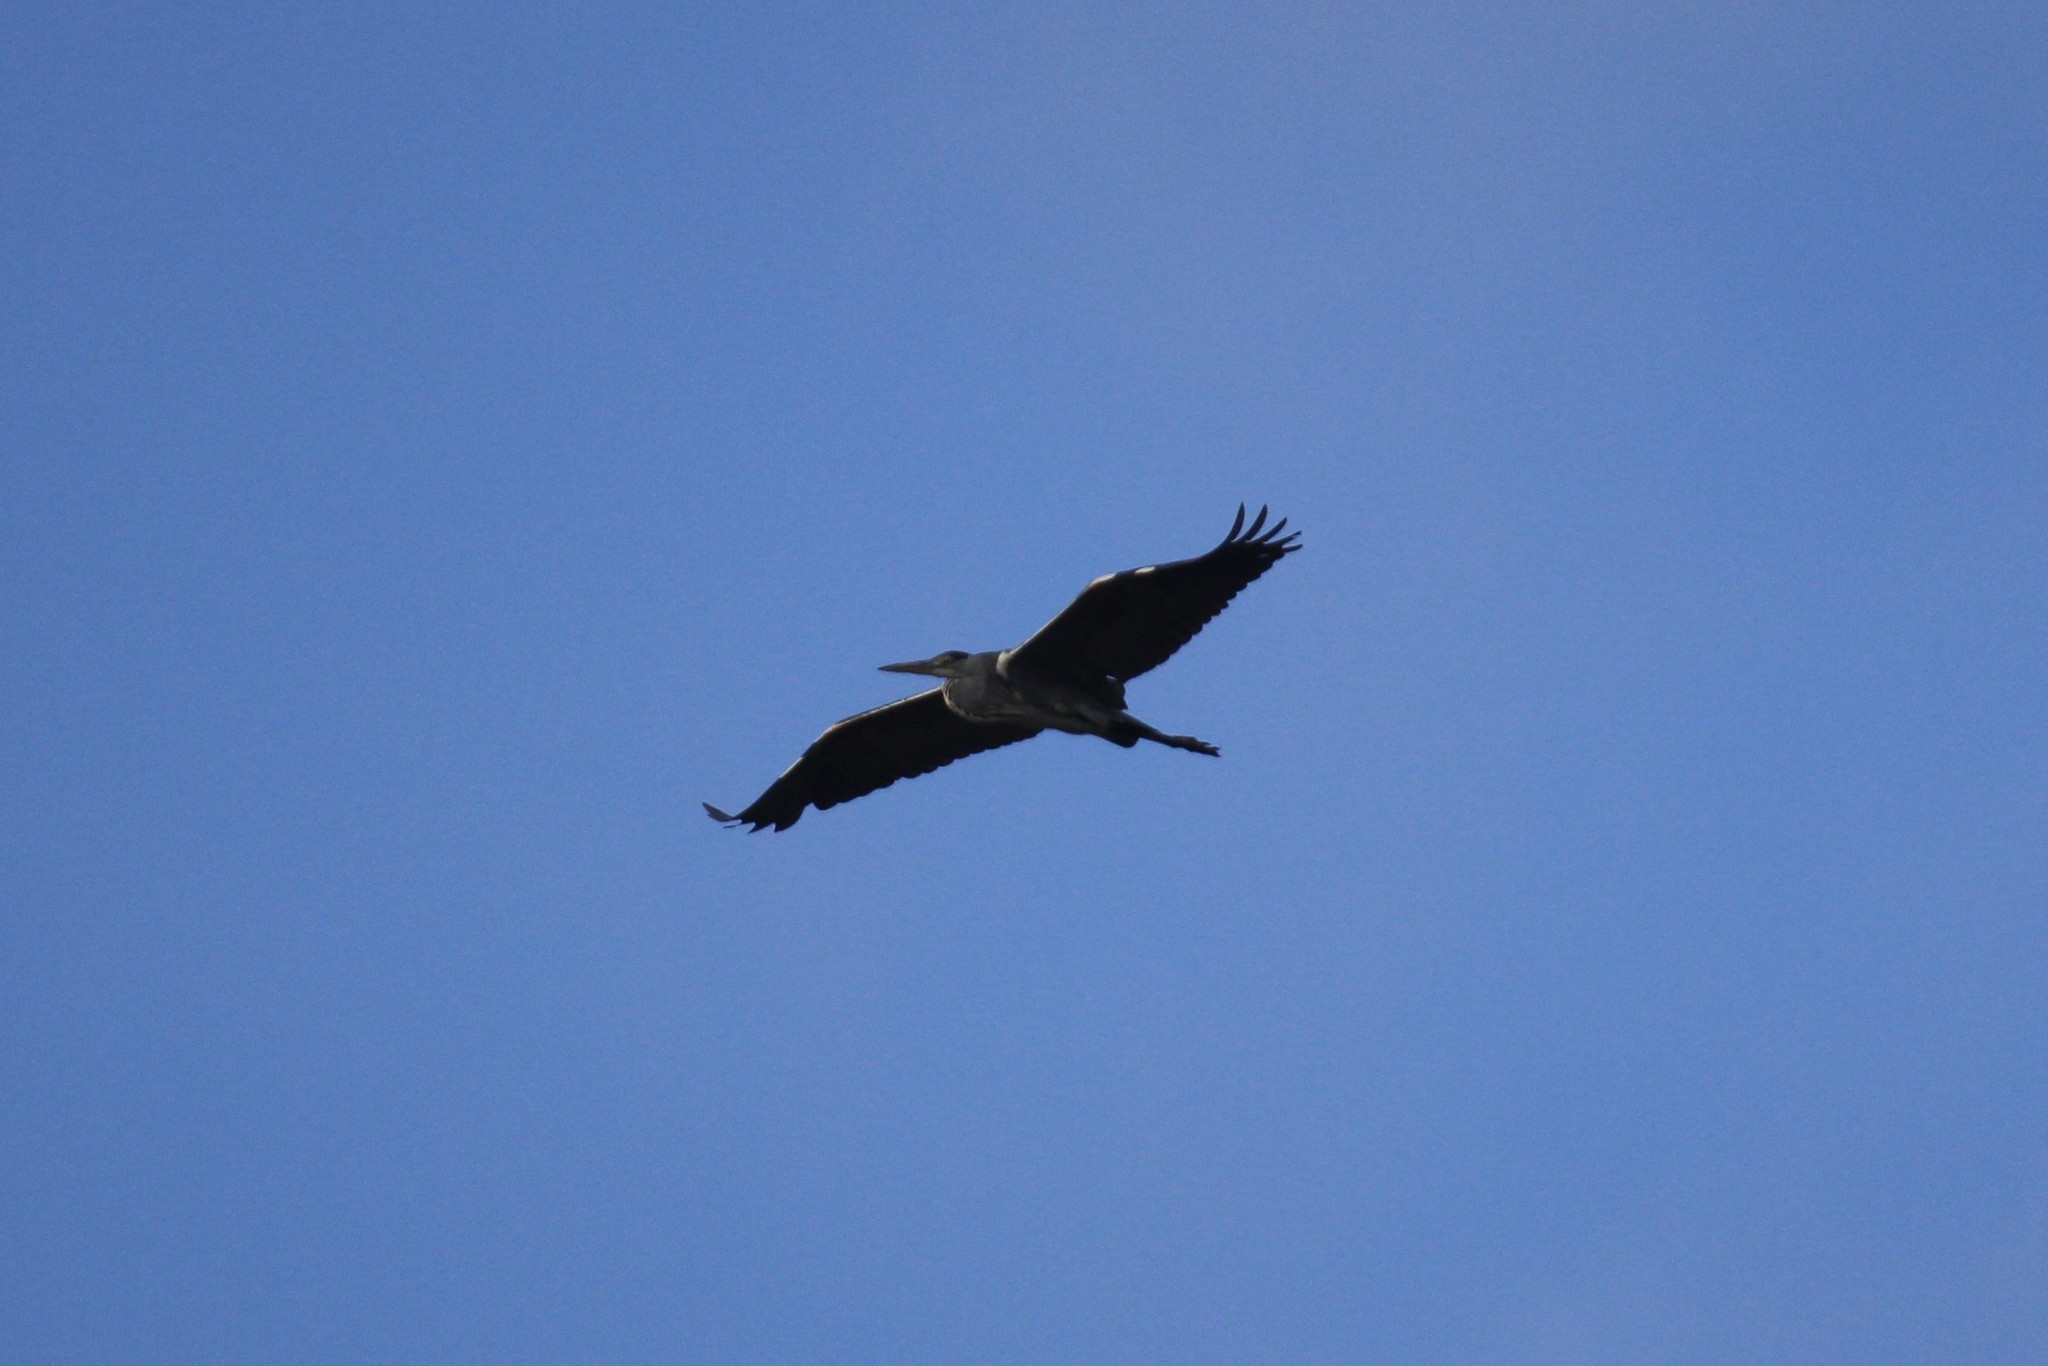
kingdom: Animalia
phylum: Chordata
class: Aves
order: Pelecaniformes
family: Ardeidae
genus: Ardea
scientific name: Ardea cinerea
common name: Grey heron
